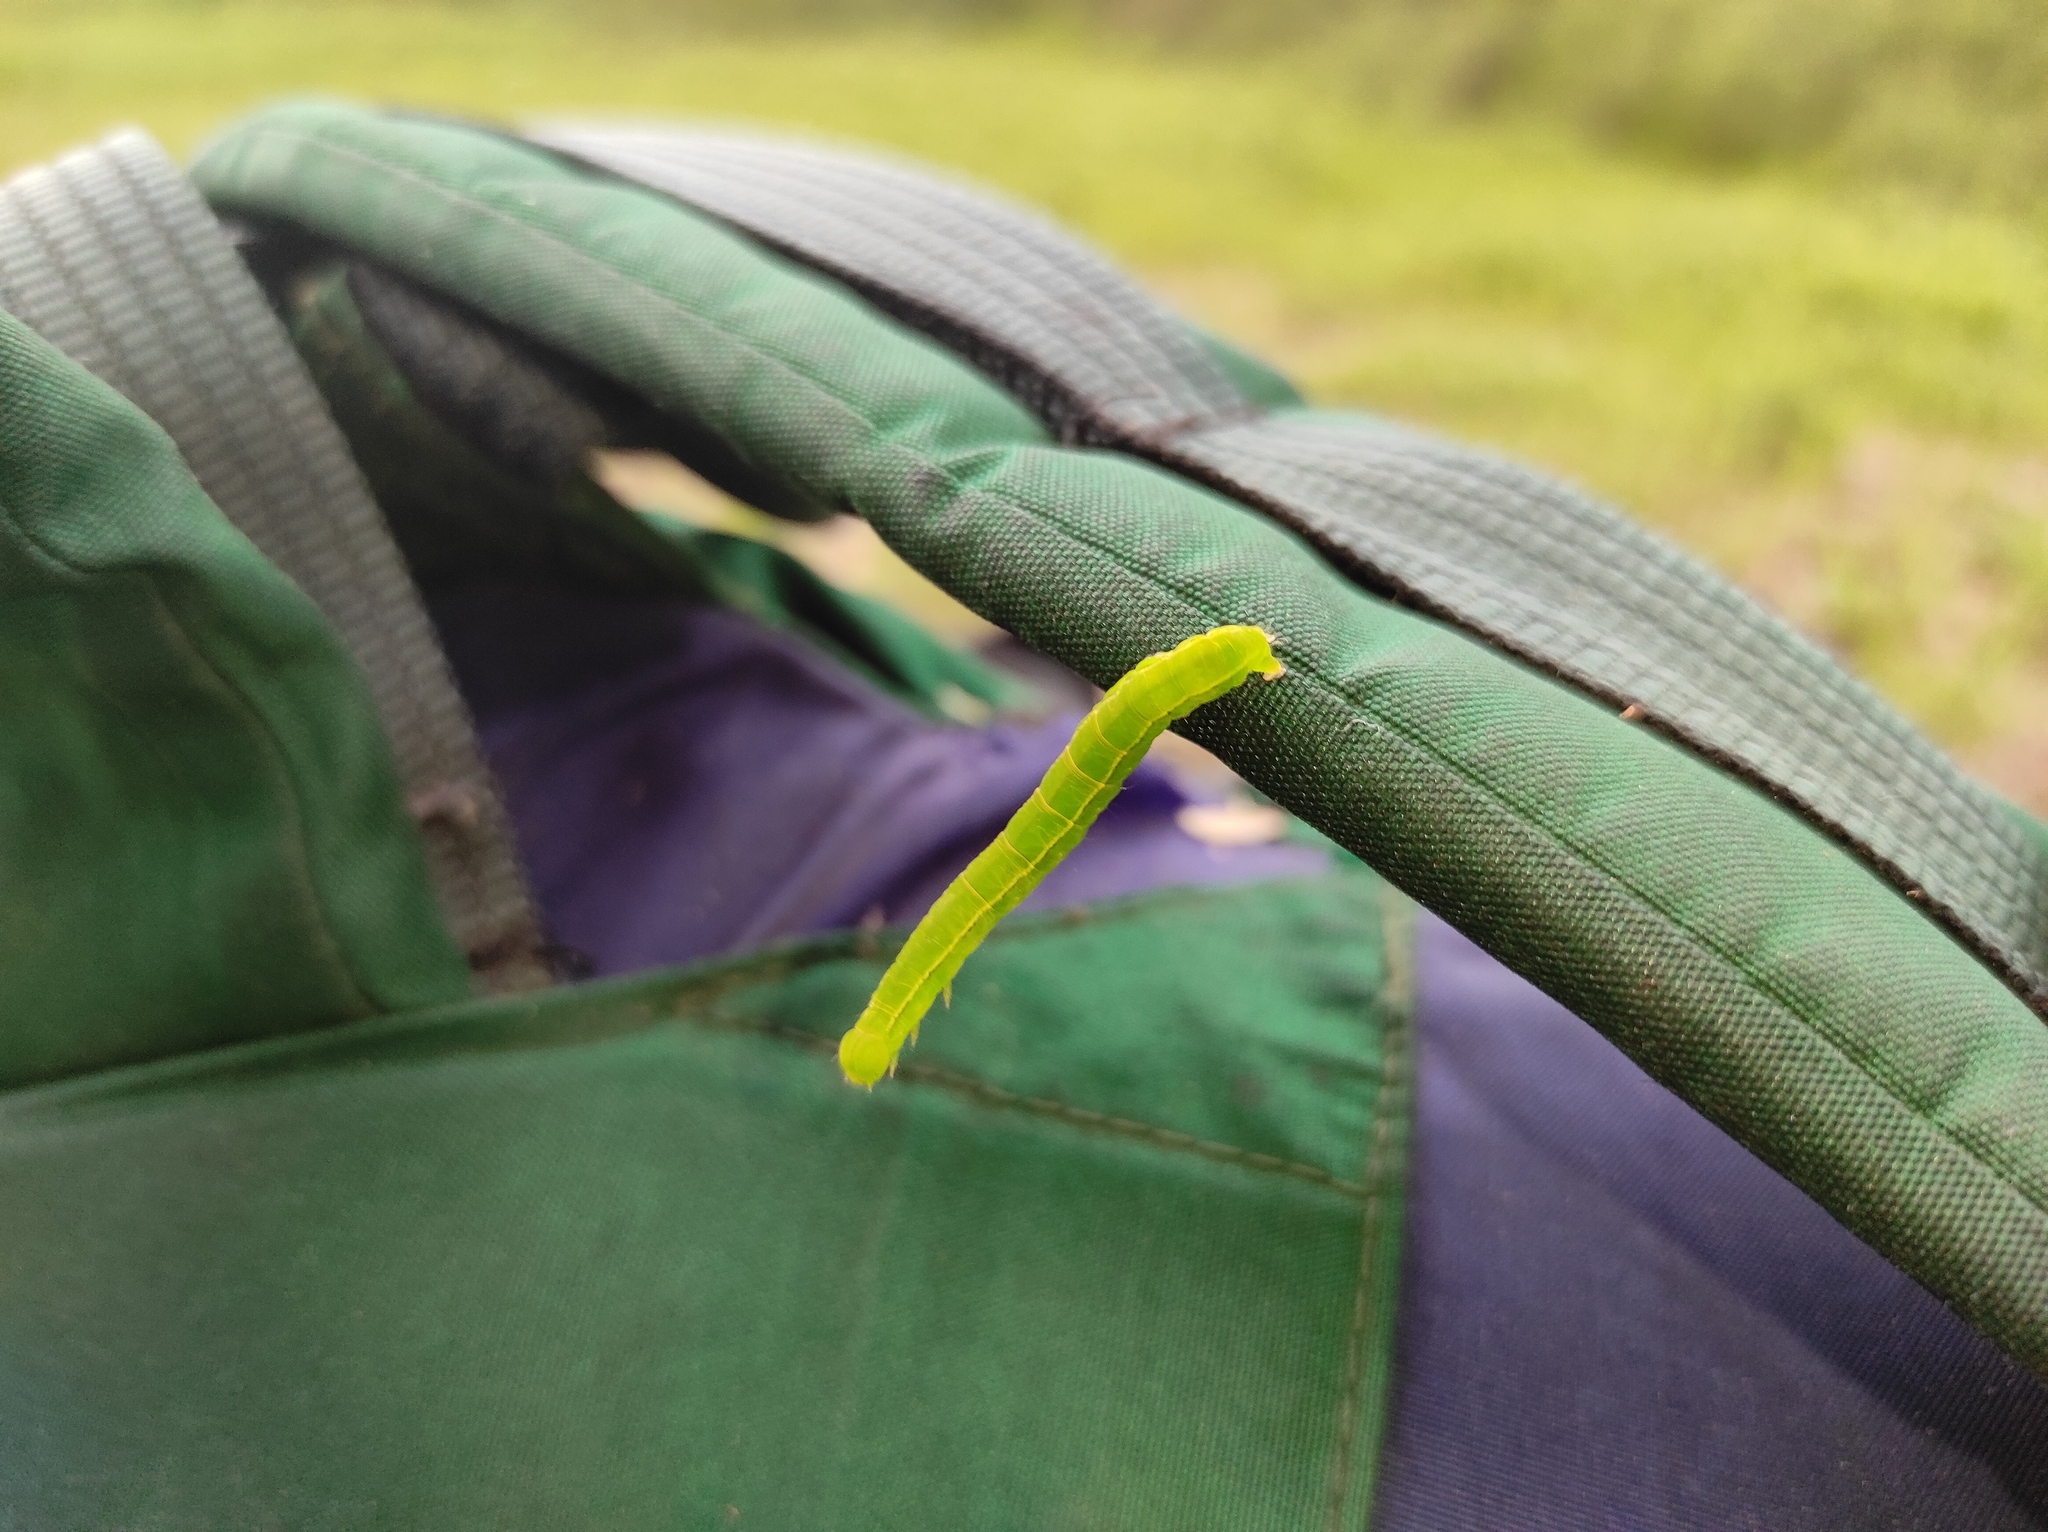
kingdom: Animalia
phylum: Arthropoda
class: Insecta
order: Lepidoptera
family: Erebidae
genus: Scoliopteryx
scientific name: Scoliopteryx libatrix
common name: Herald
